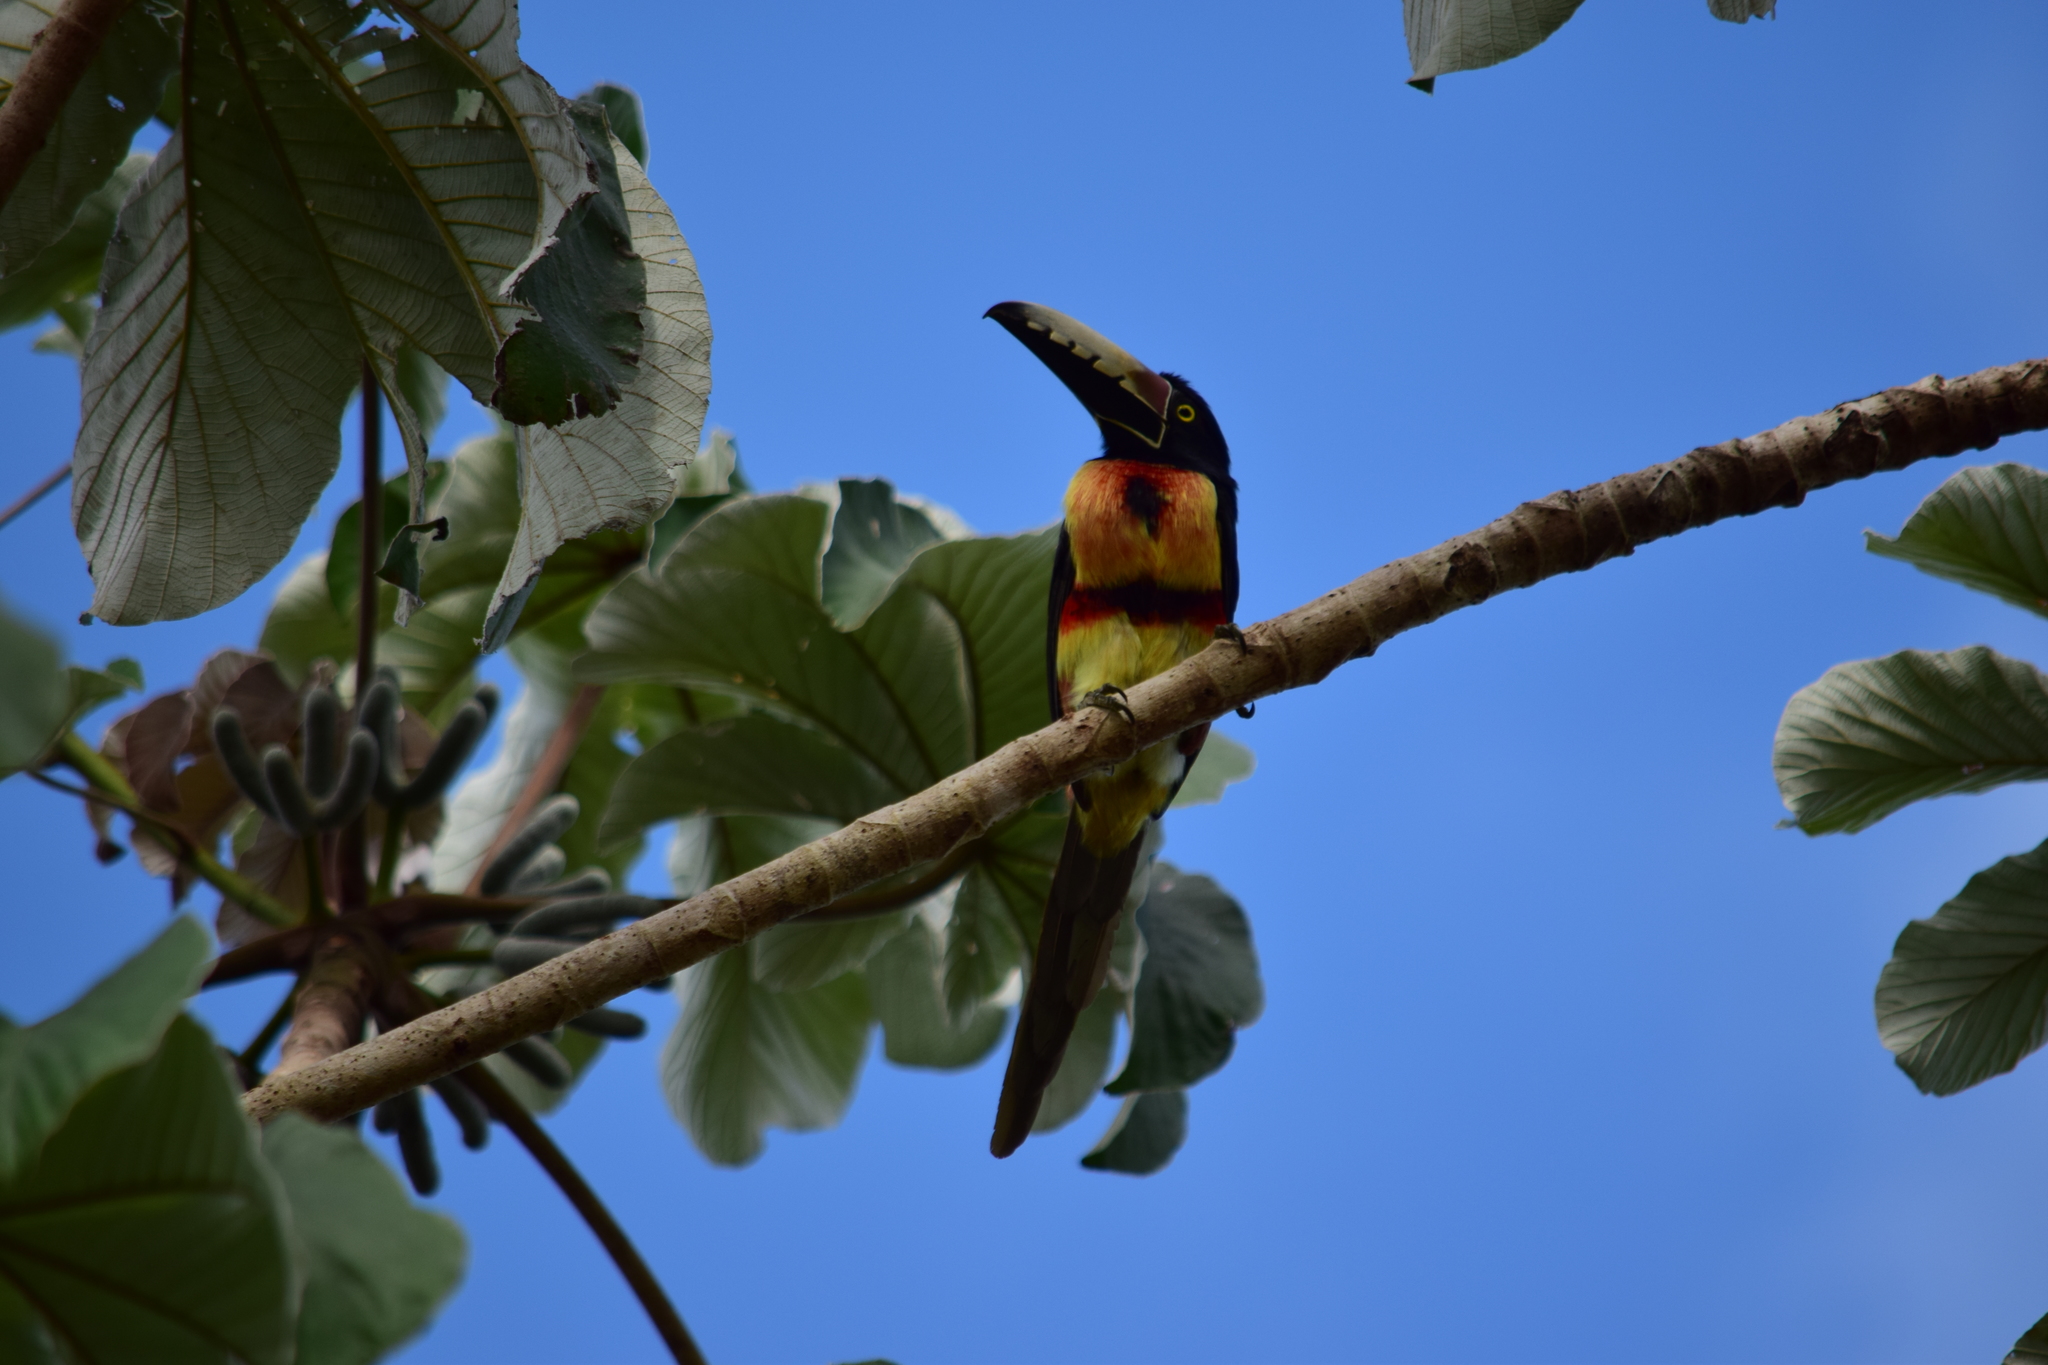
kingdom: Animalia
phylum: Chordata
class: Aves
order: Piciformes
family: Ramphastidae
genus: Pteroglossus
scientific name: Pteroglossus torquatus
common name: Collared aracari
